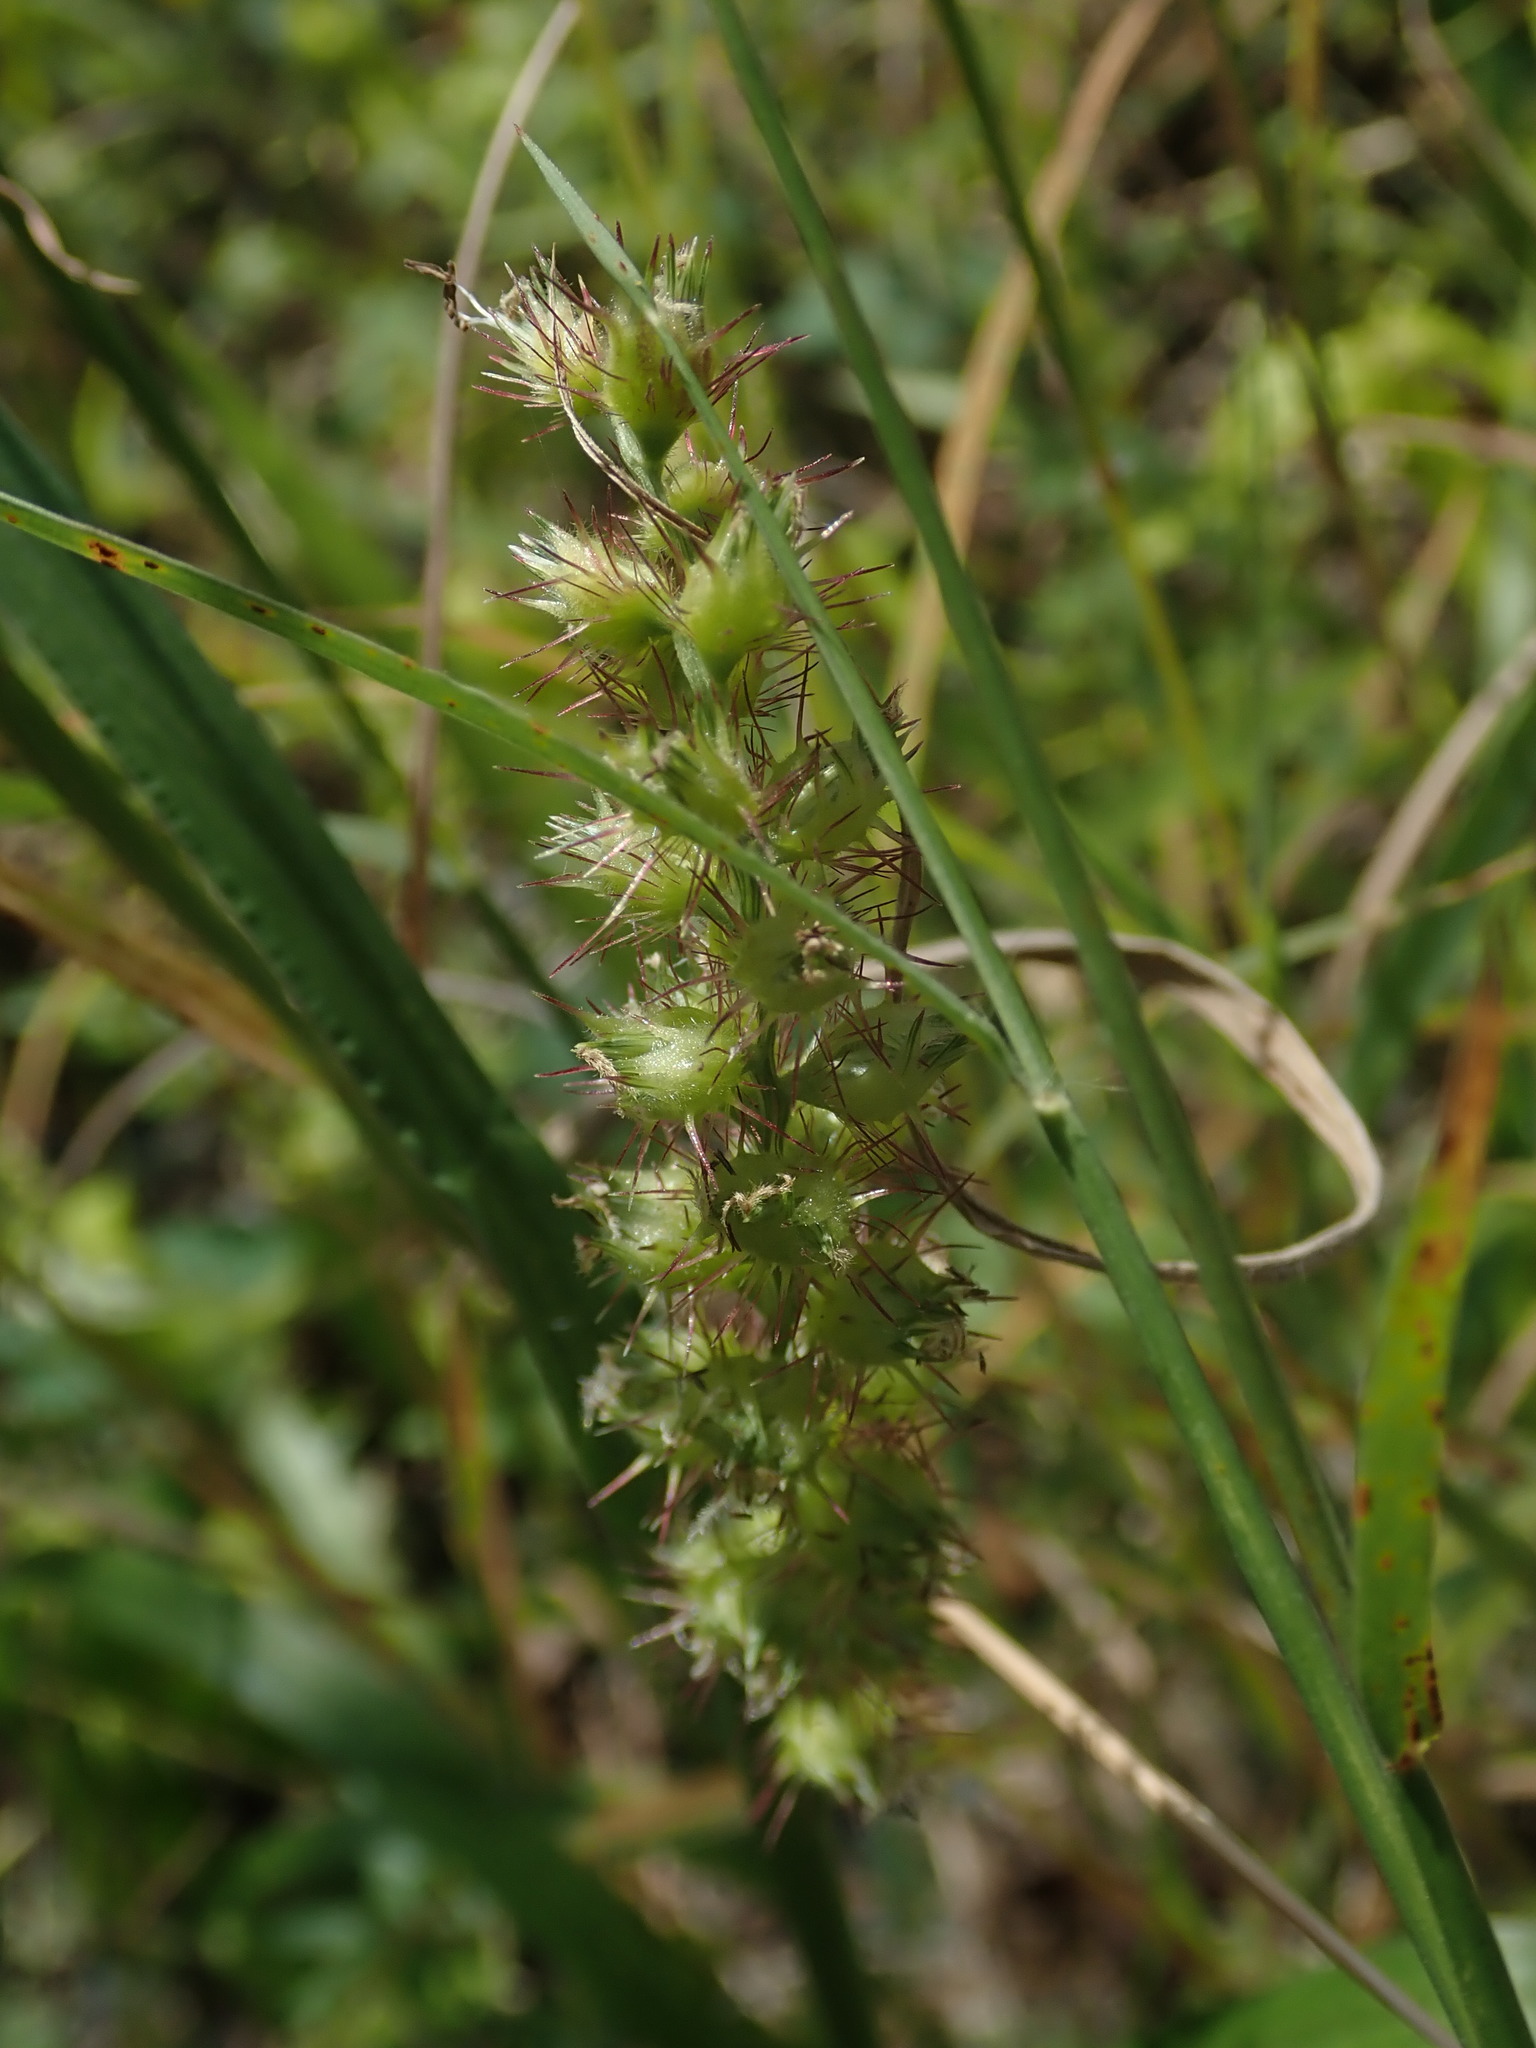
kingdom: Plantae
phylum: Tracheophyta
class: Liliopsida
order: Poales
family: Poaceae
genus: Cenchrus
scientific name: Cenchrus echinatus
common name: Southern sandbur
